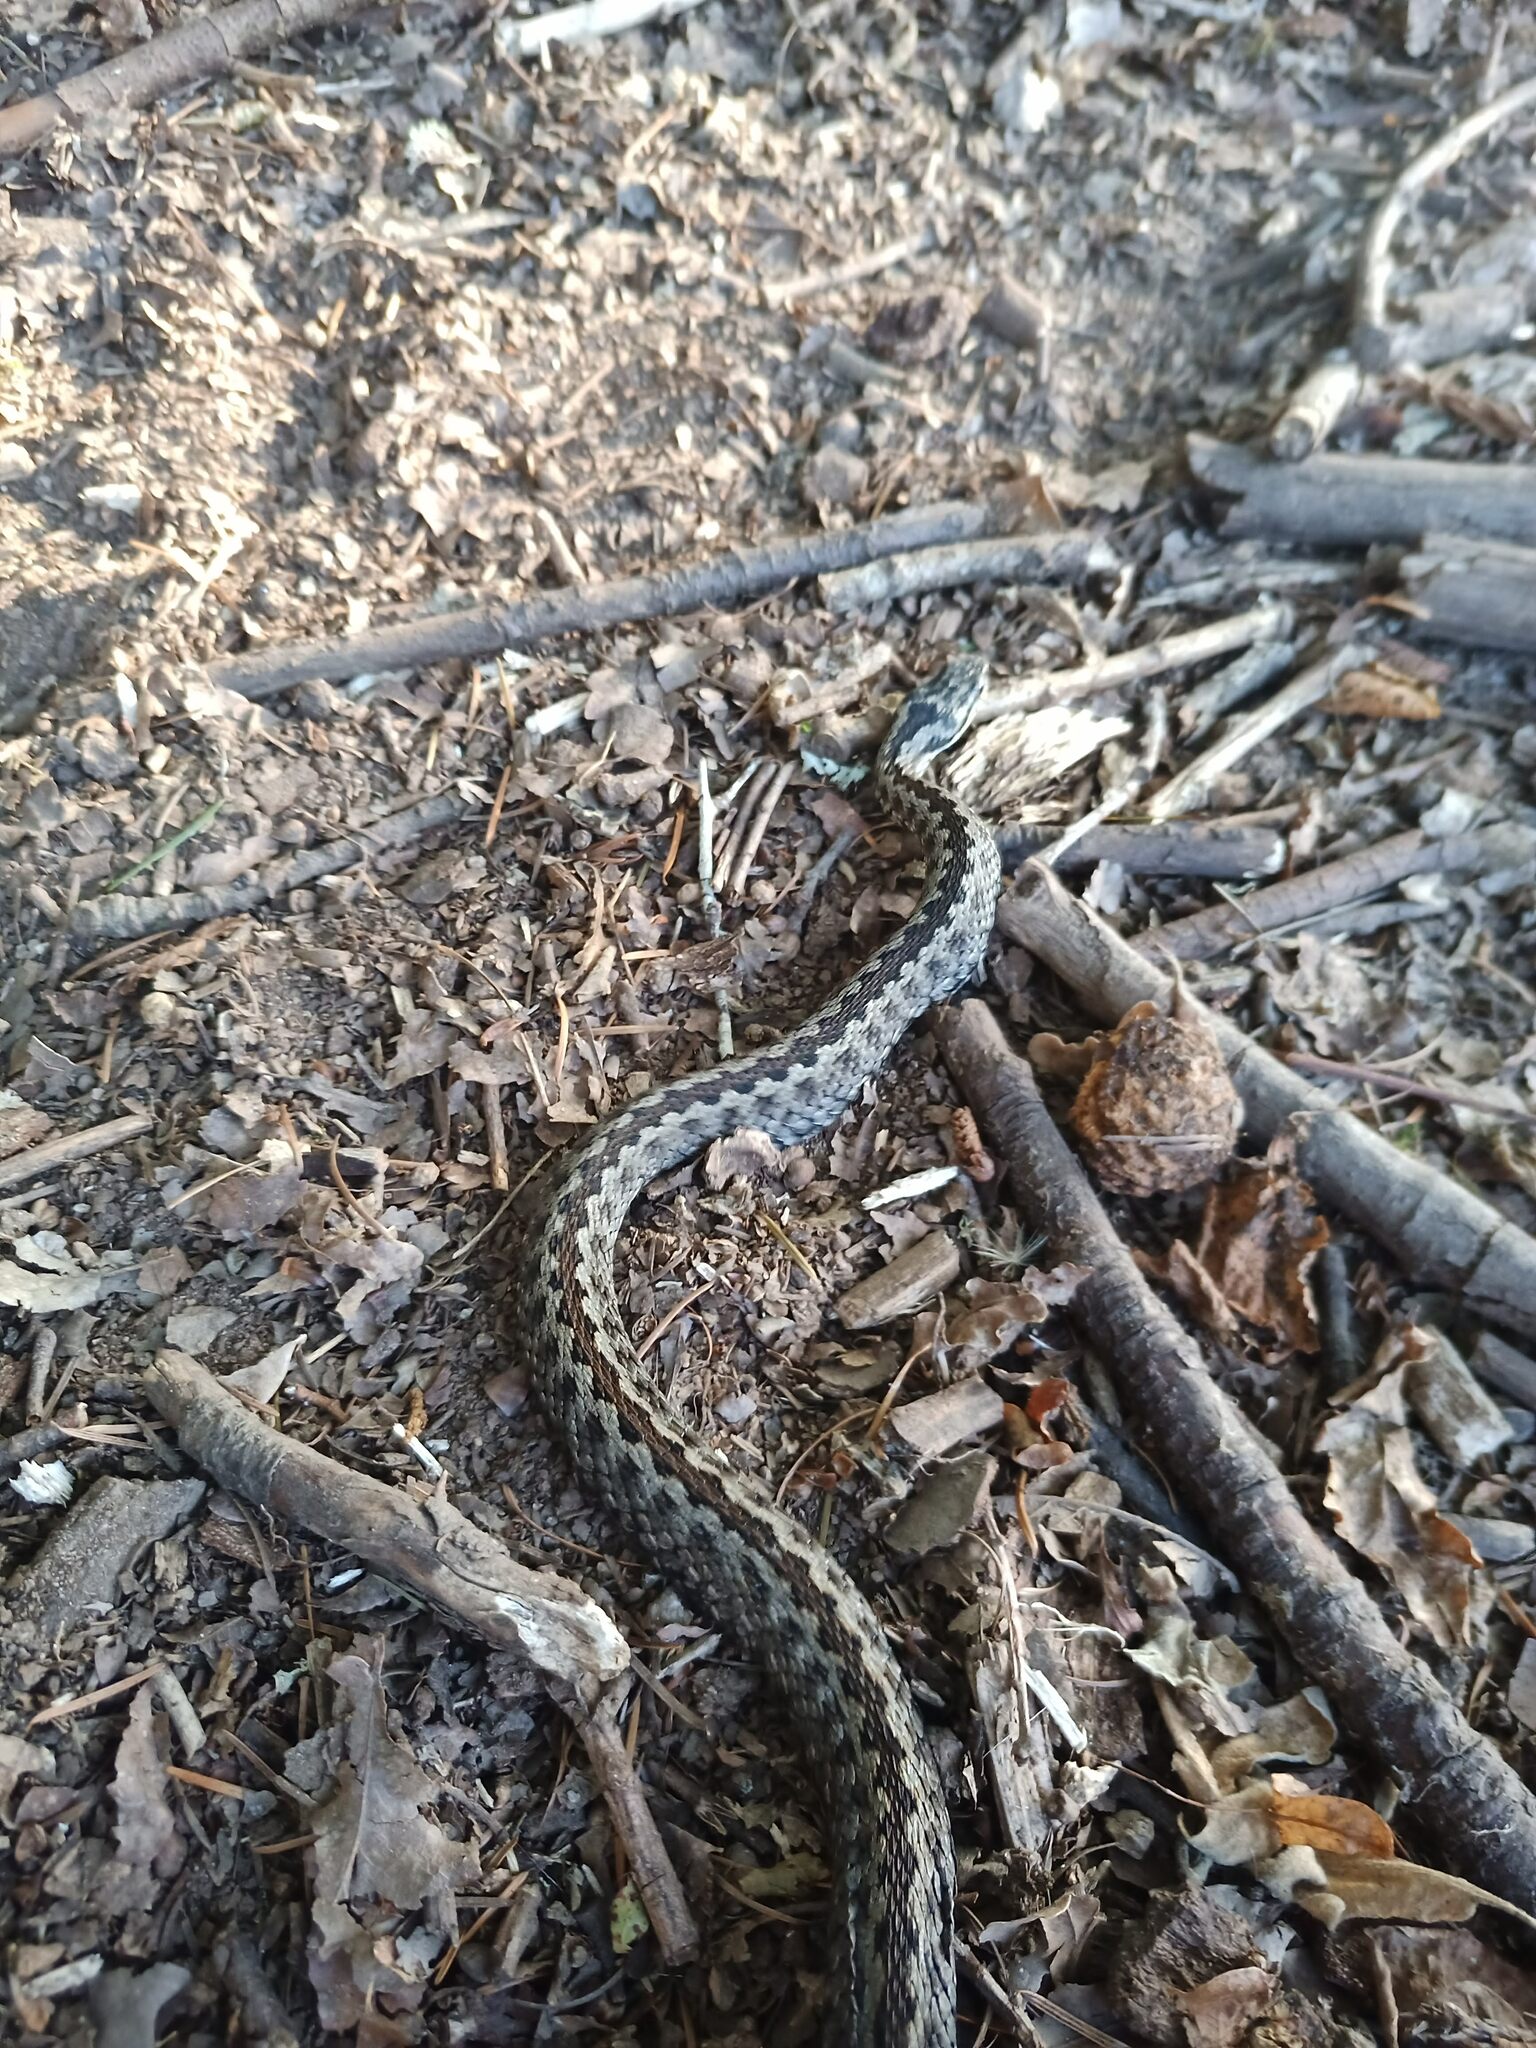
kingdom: Animalia
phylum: Chordata
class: Squamata
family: Viperidae
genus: Vipera
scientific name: Vipera seoanei
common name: Portugese viper
